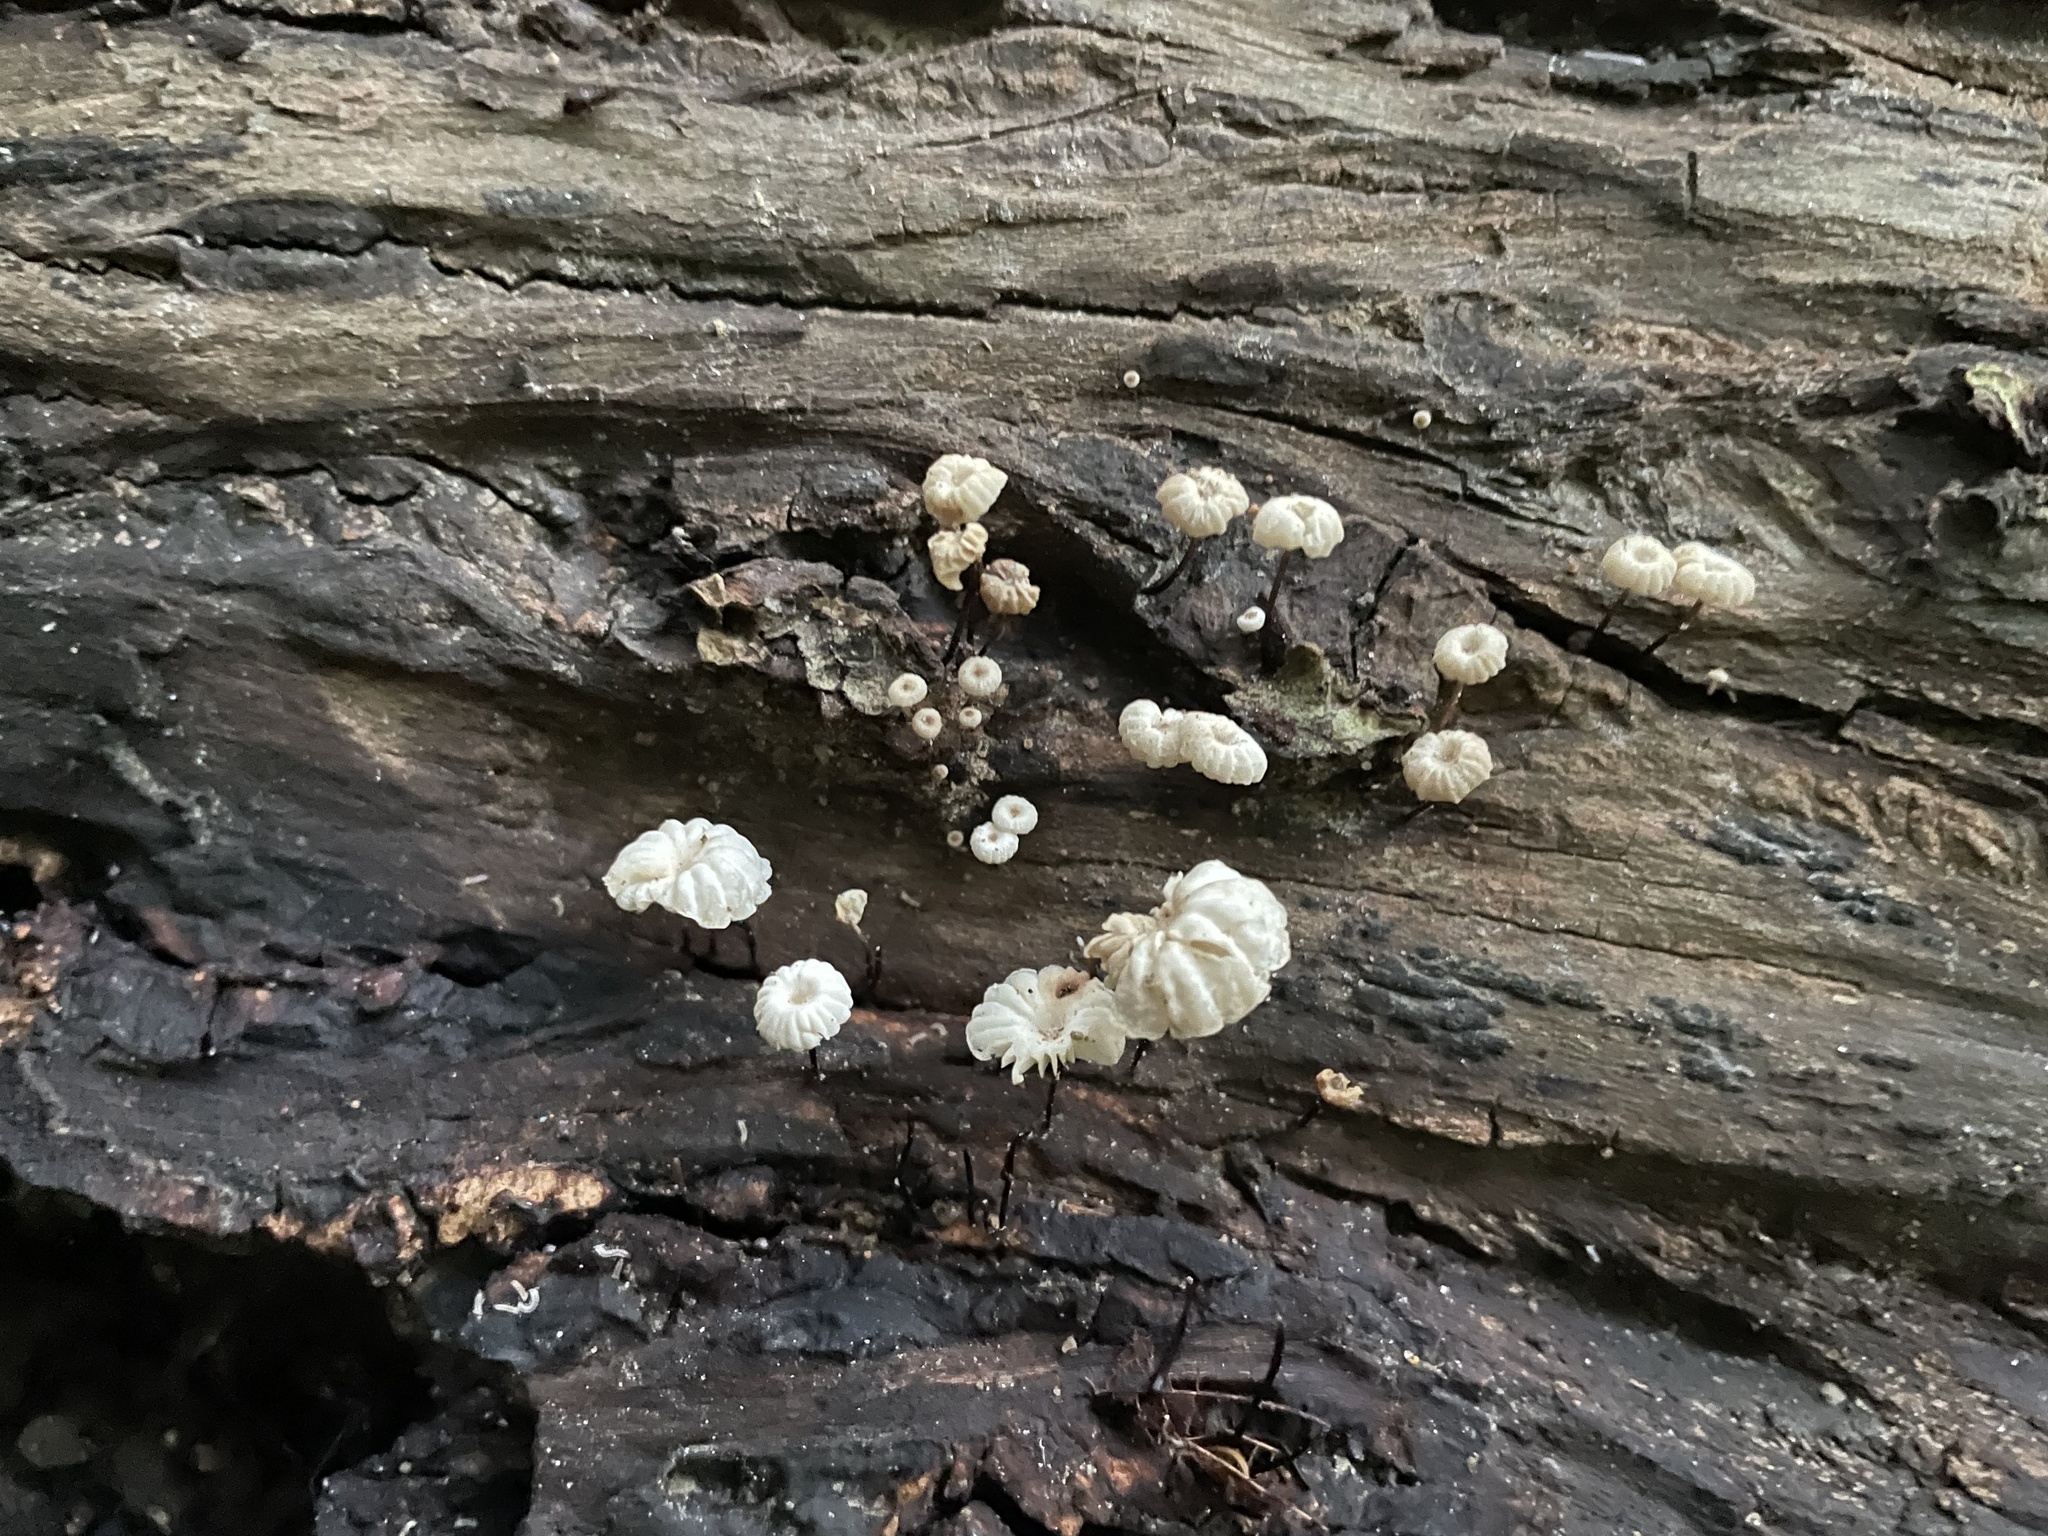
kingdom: Fungi
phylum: Basidiomycota
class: Agaricomycetes
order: Agaricales
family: Marasmiaceae
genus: Marasmius
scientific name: Marasmius rotula
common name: Collared parachute
